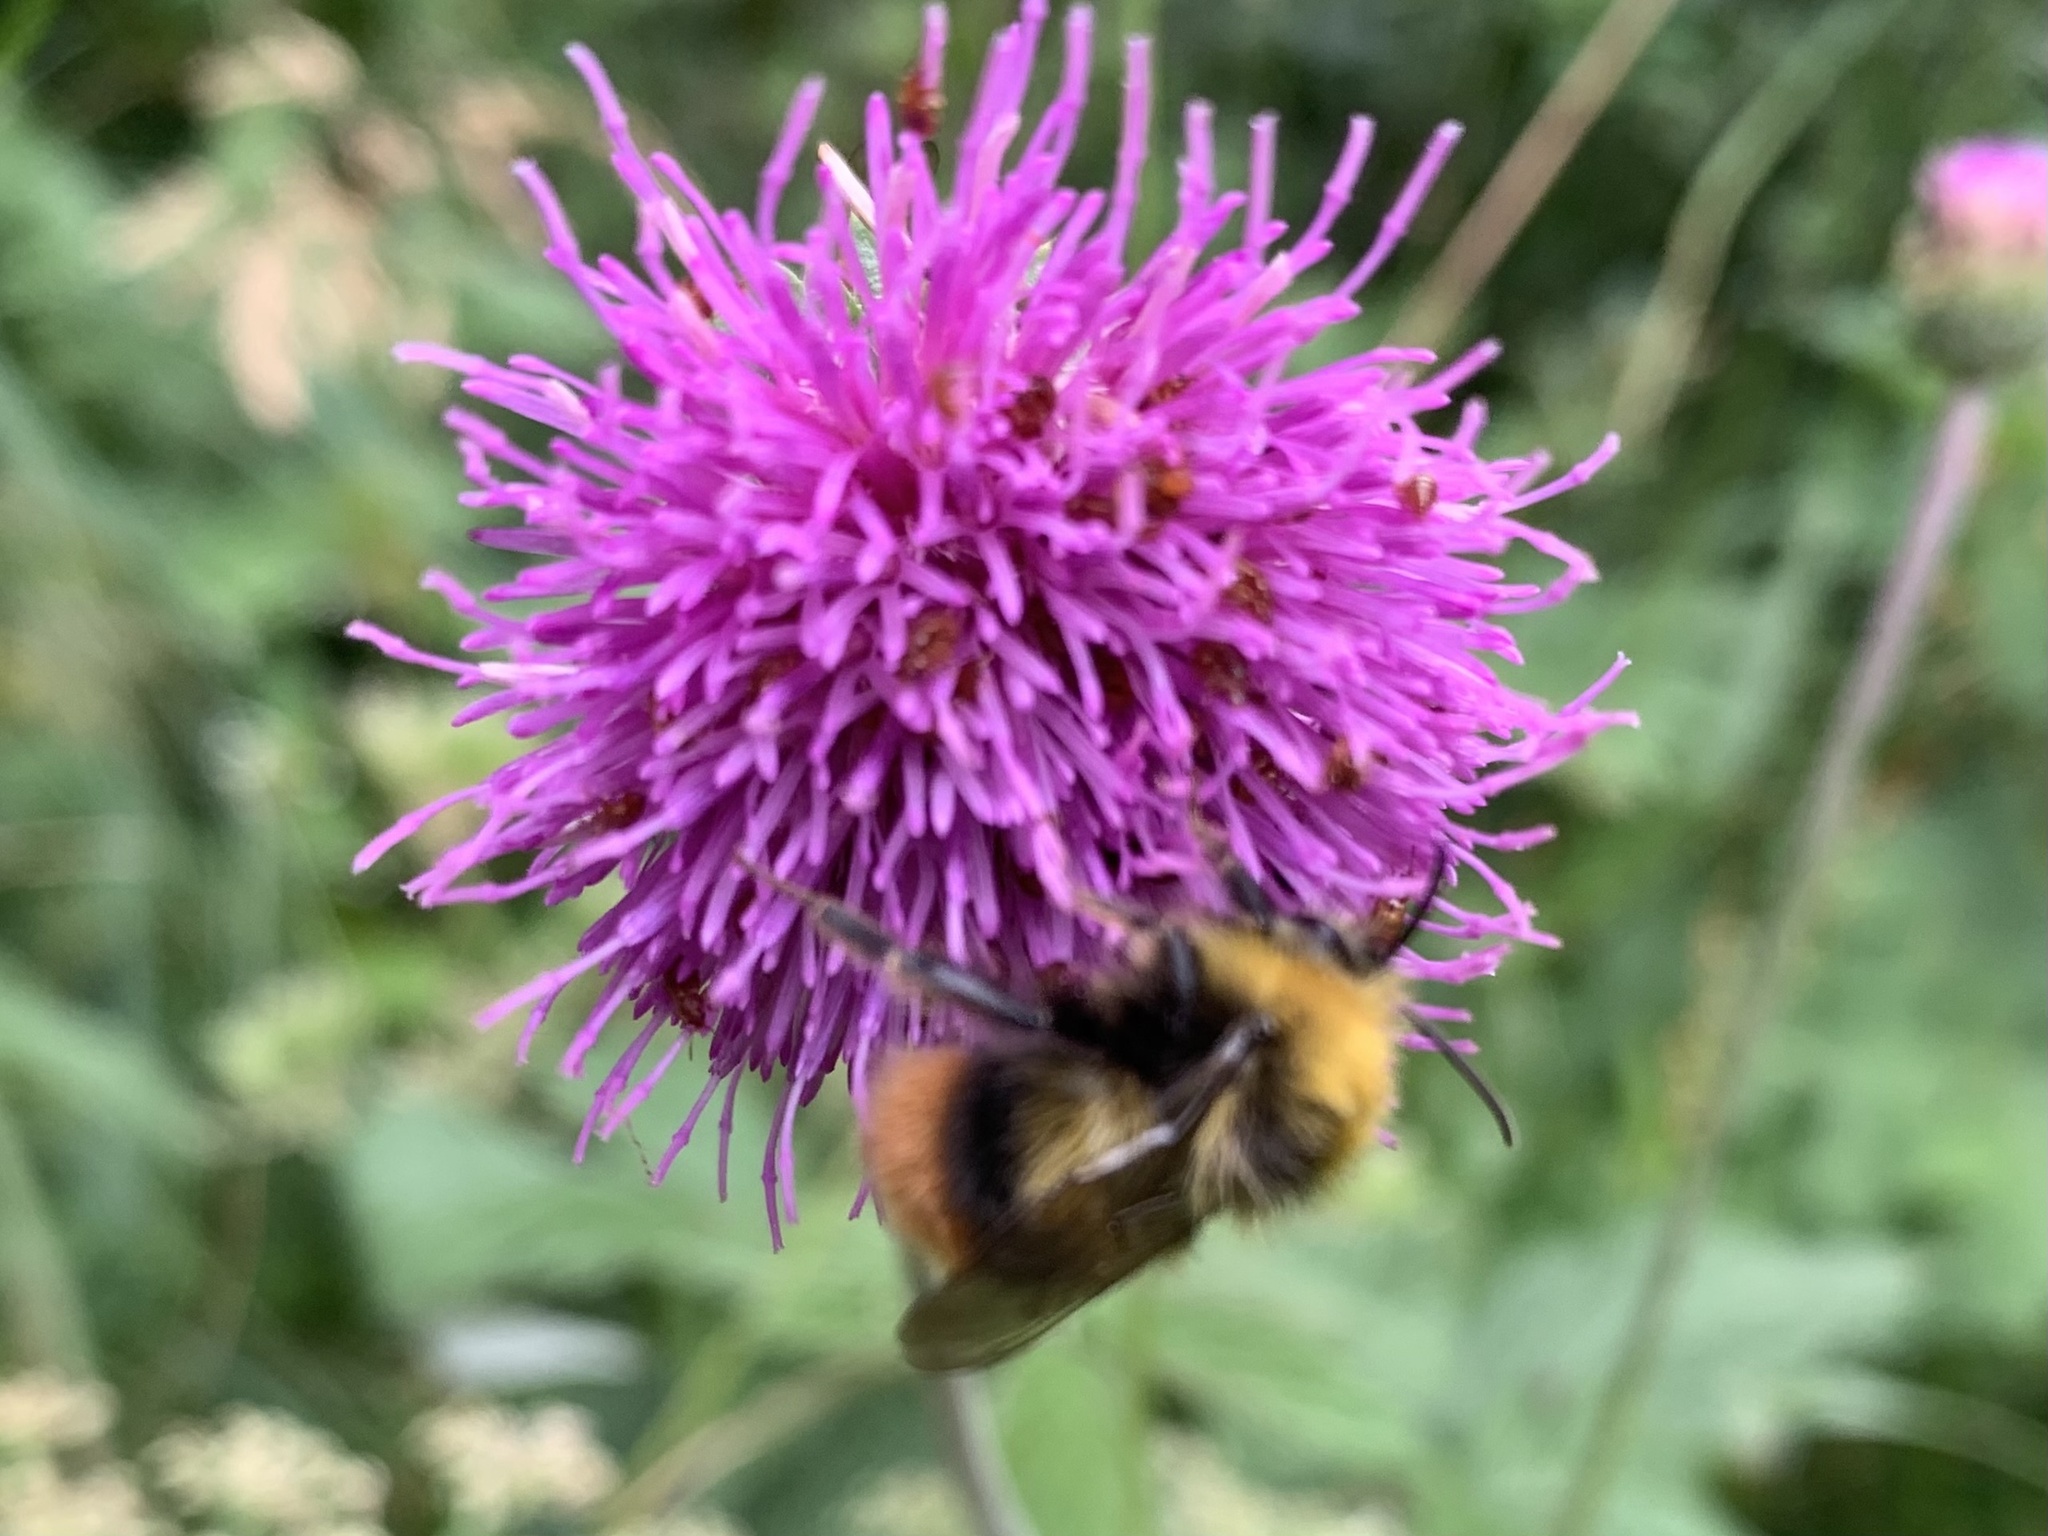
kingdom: Animalia
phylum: Arthropoda
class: Insecta
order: Hymenoptera
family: Apidae
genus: Bombus
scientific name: Bombus pratorum
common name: Early humble-bee
